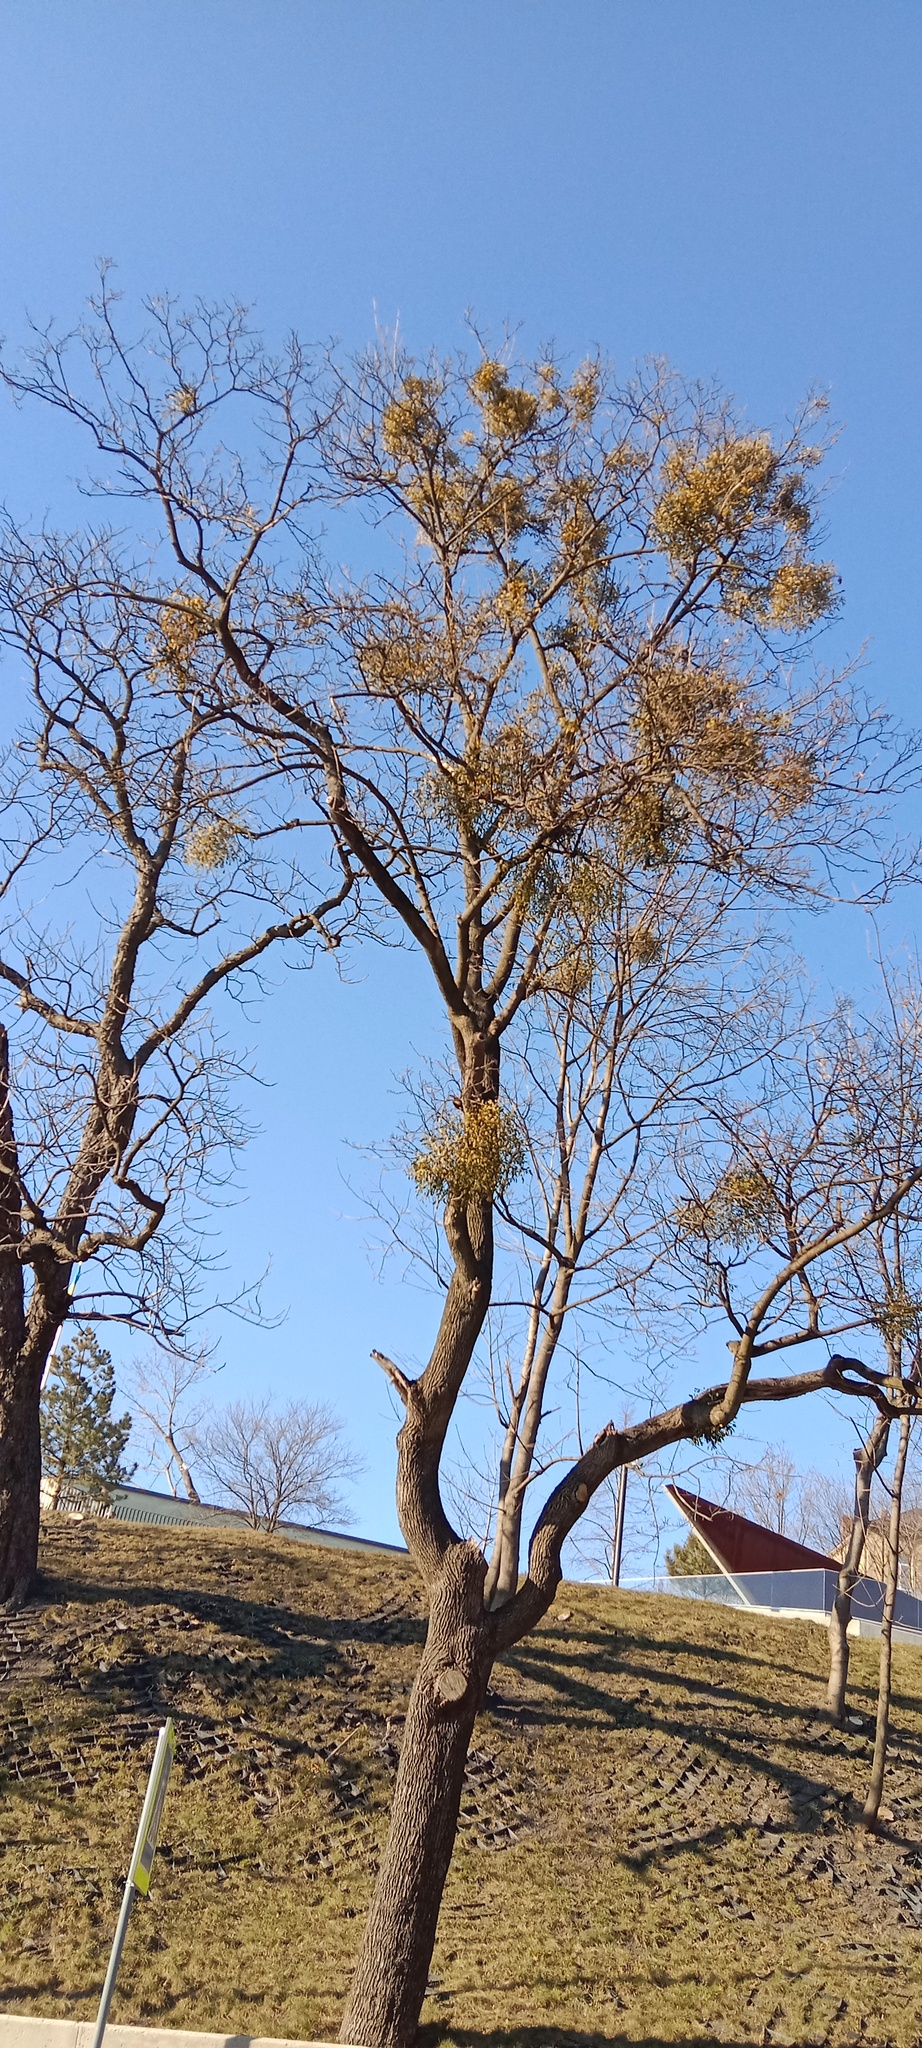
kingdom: Plantae
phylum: Tracheophyta
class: Magnoliopsida
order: Santalales
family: Viscaceae
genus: Viscum
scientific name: Viscum album
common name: Mistletoe
